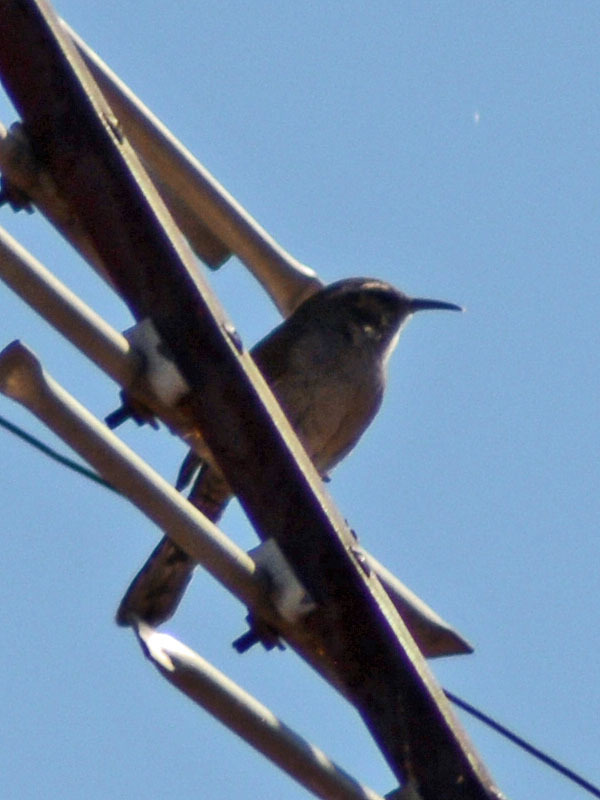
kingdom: Animalia
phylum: Chordata
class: Aves
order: Passeriformes
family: Troglodytidae
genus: Thryomanes
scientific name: Thryomanes bewickii
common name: Bewick's wren
